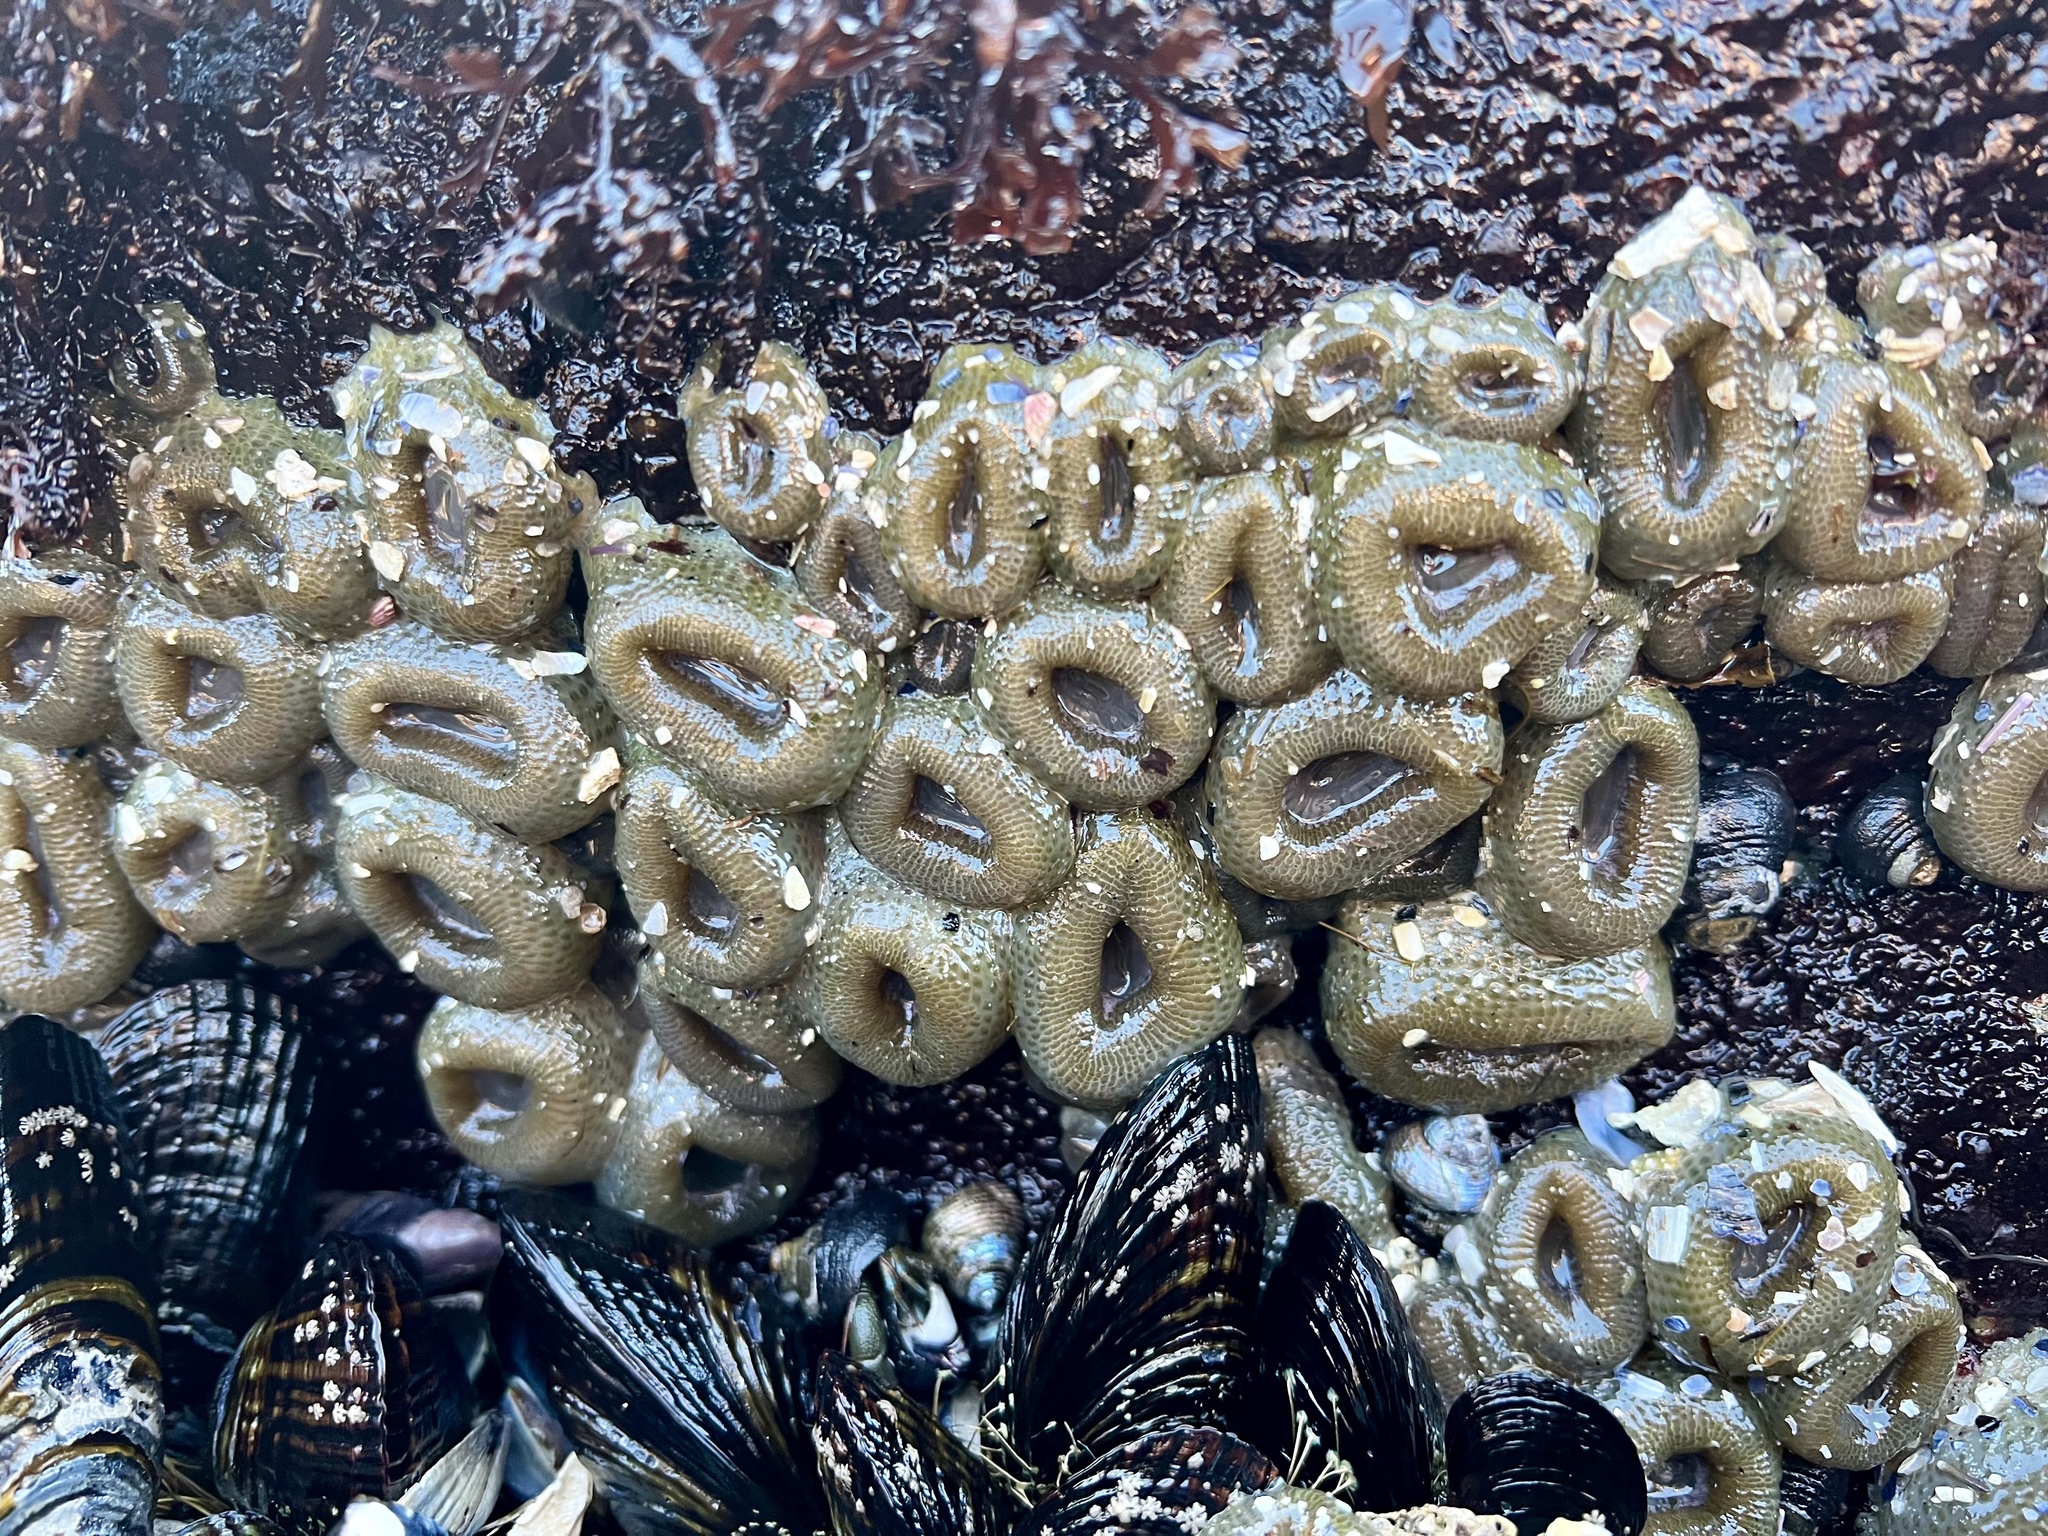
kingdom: Animalia
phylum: Cnidaria
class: Anthozoa
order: Actiniaria
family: Actiniidae
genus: Anthopleura
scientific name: Anthopleura elegantissima
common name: Clonal anemone
